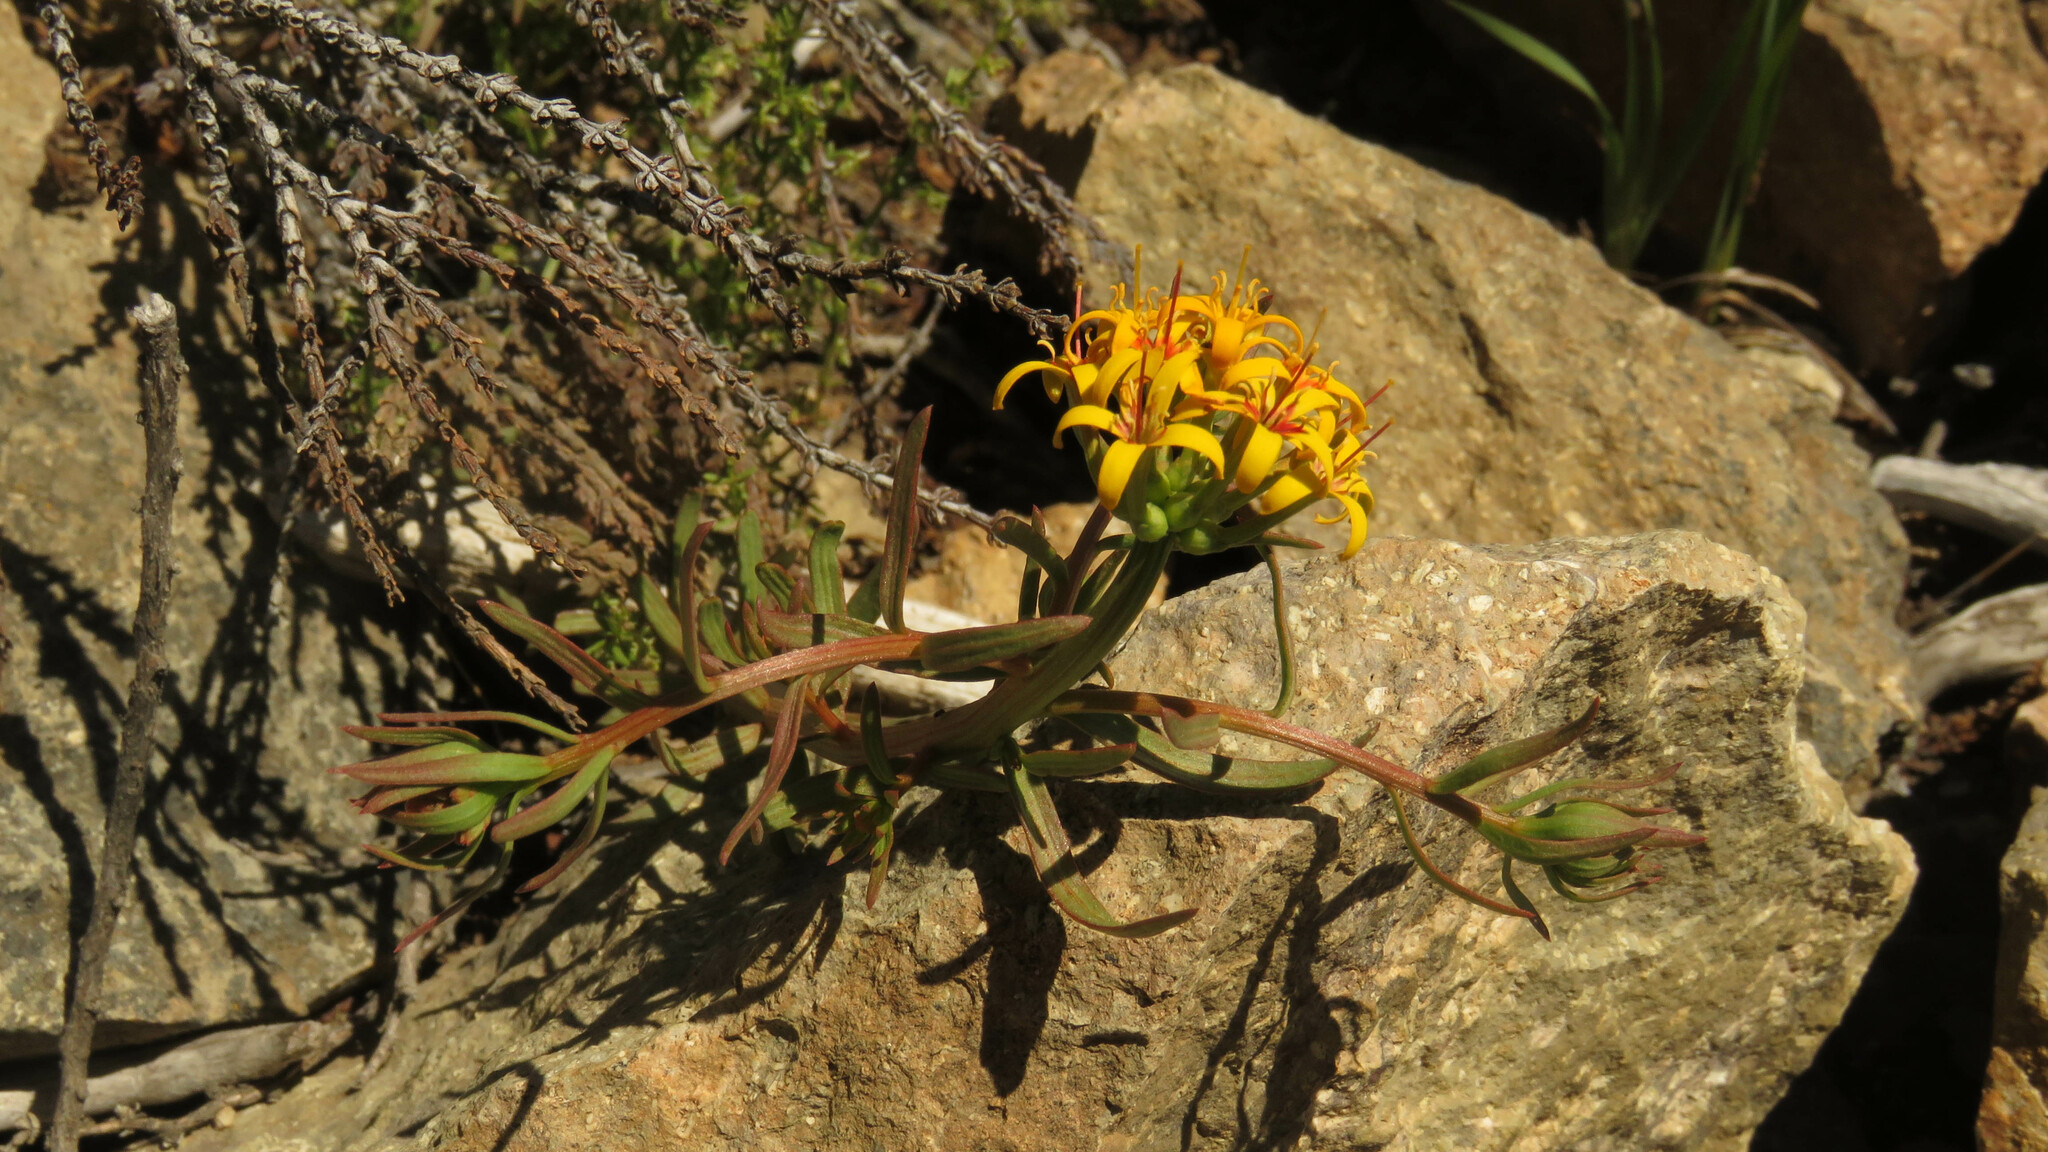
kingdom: Plantae
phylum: Tracheophyta
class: Magnoliopsida
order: Santalales
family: Schoepfiaceae
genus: Quinchamalium
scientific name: Quinchamalium chilense
